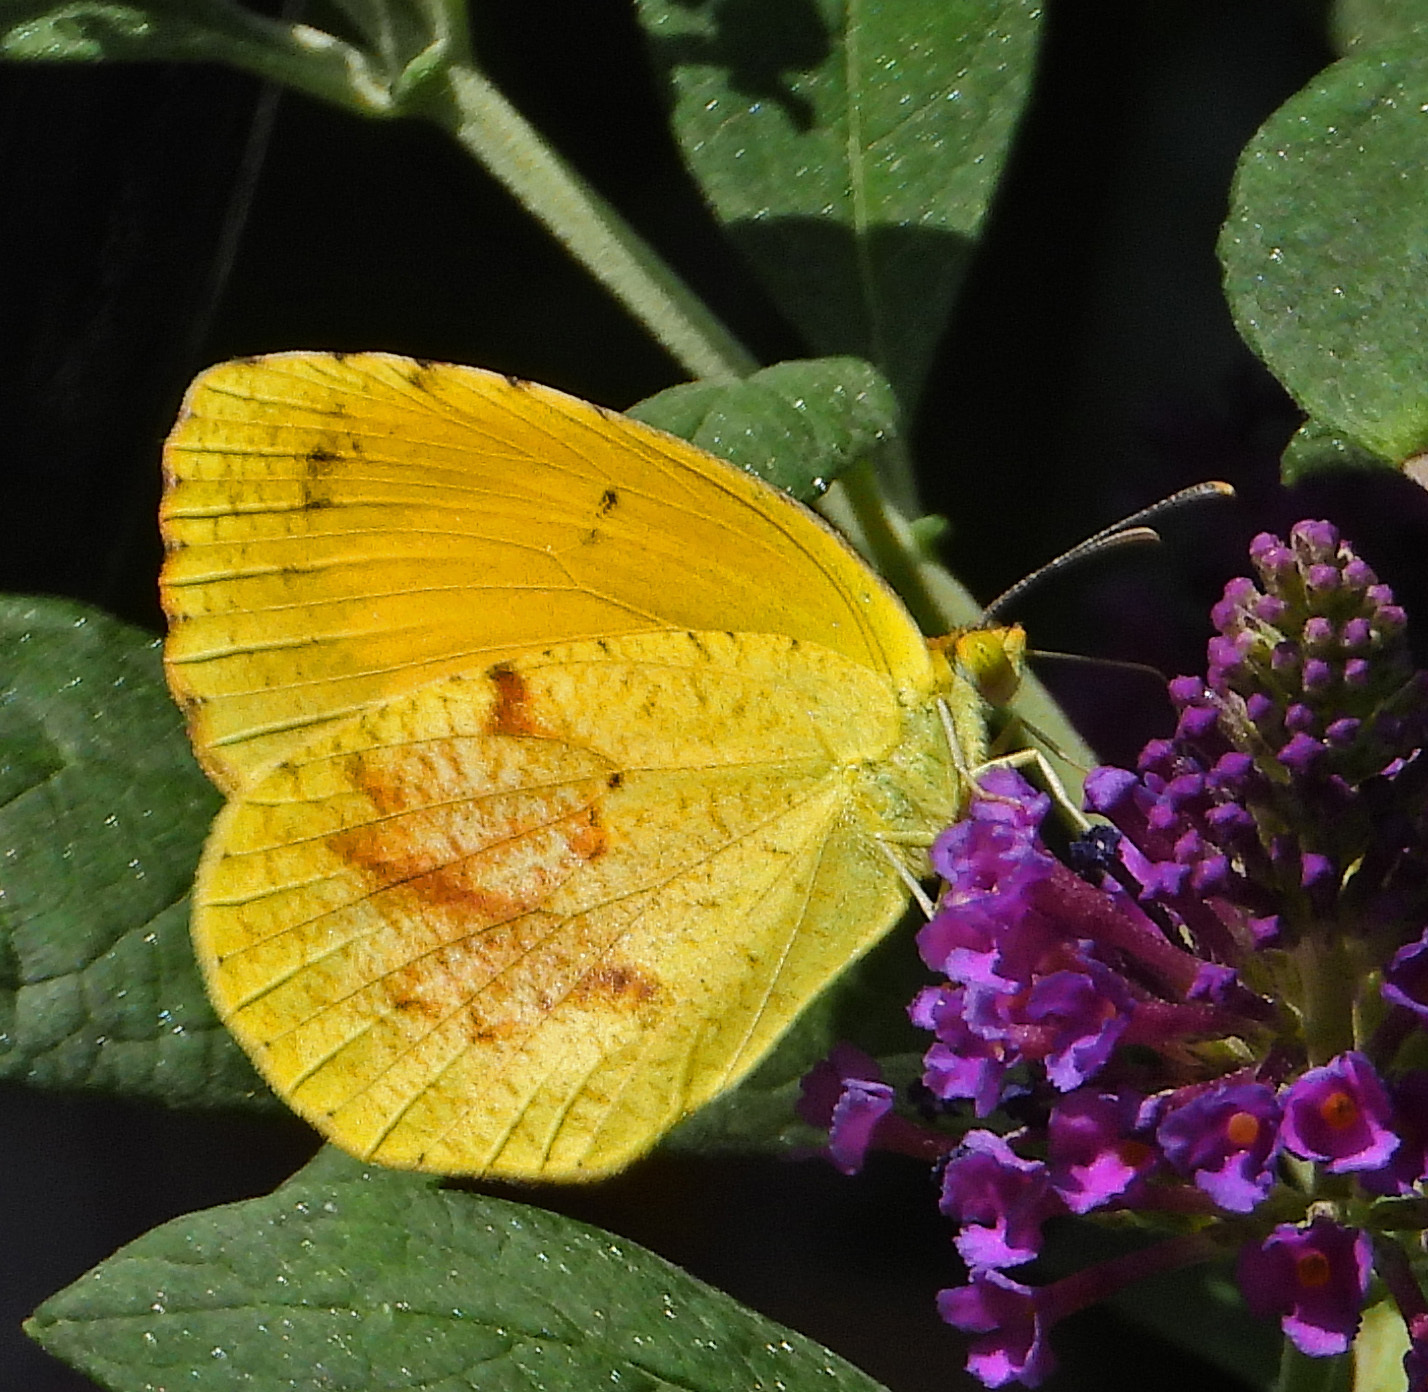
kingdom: Animalia
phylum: Arthropoda
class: Insecta
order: Lepidoptera
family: Pieridae
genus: Abaeis
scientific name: Abaeis nicippe
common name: Sleepy orange
